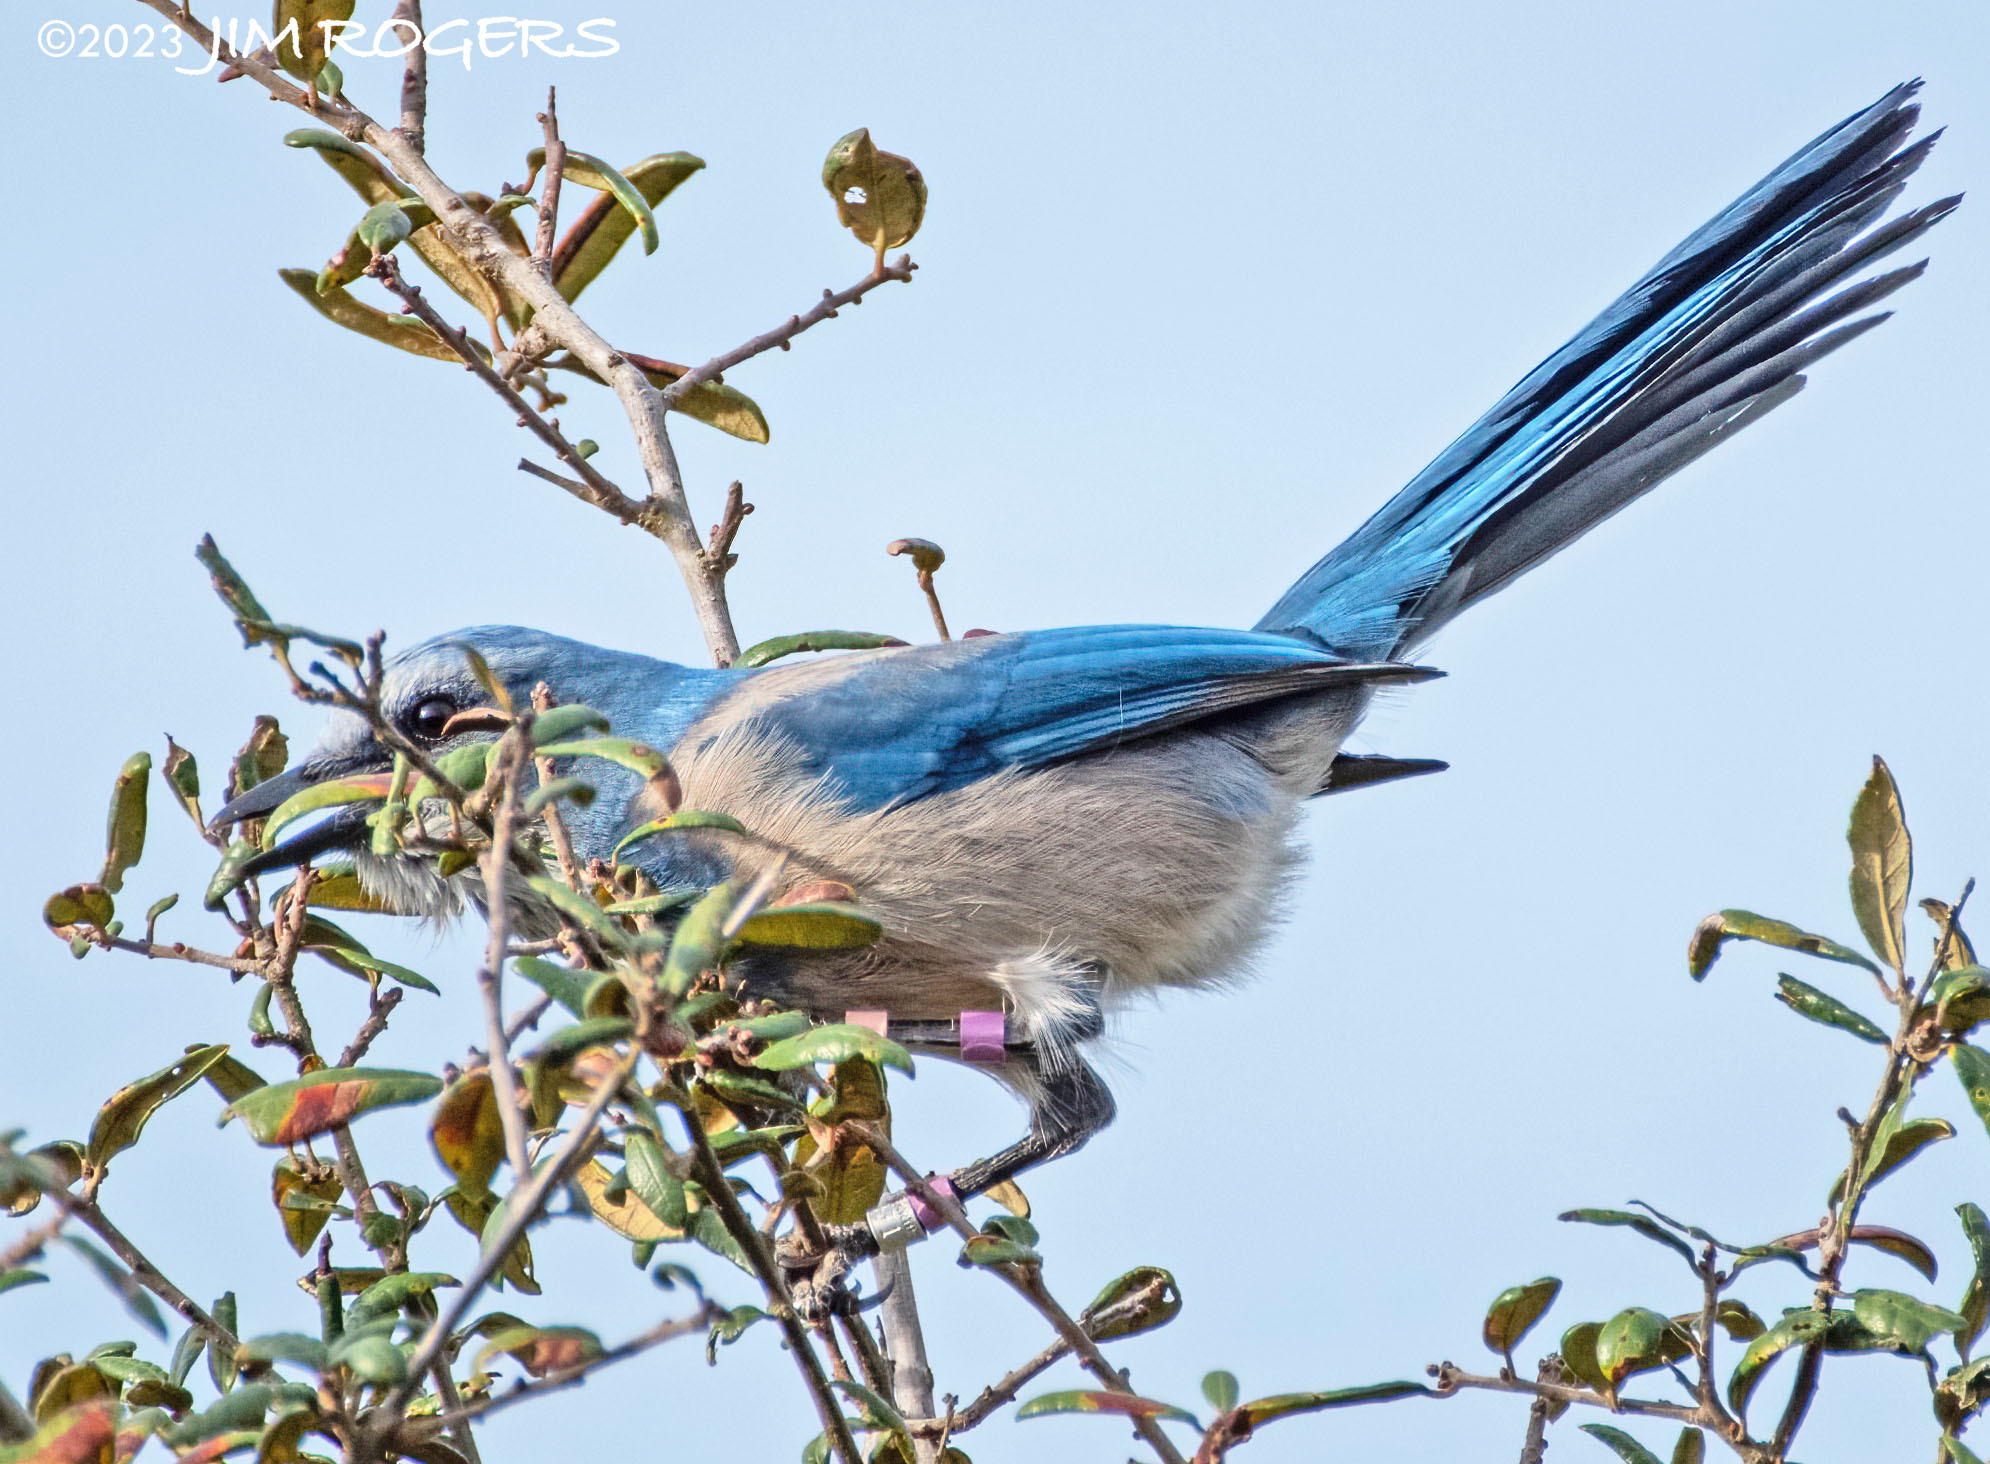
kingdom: Animalia
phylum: Chordata
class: Aves
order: Passeriformes
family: Corvidae
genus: Aphelocoma
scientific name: Aphelocoma coerulescens
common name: Florida scrub jay
